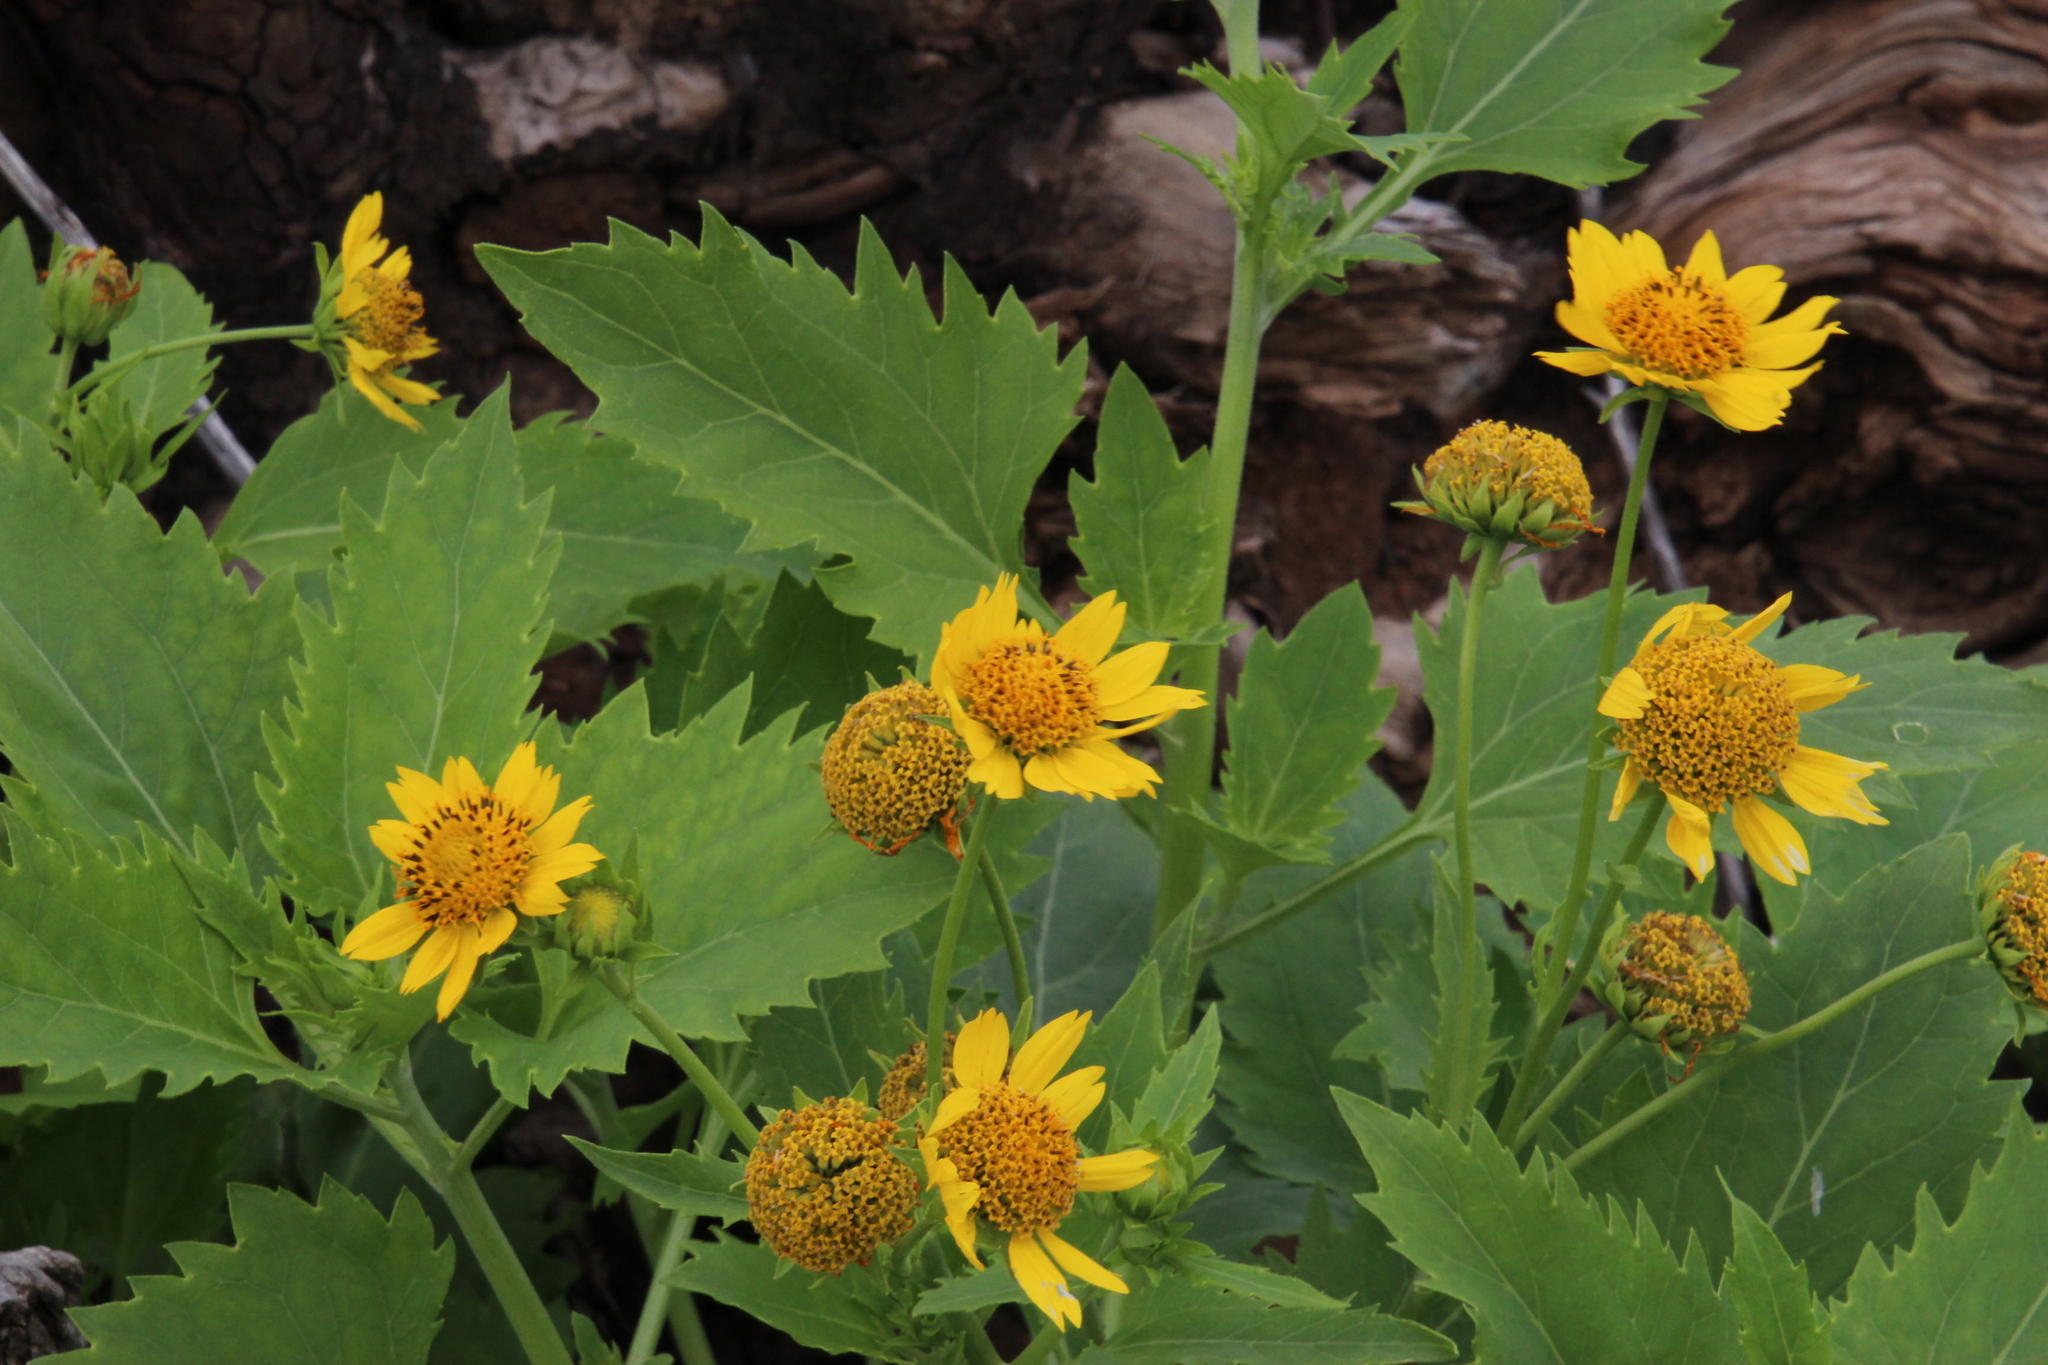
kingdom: Plantae
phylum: Tracheophyta
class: Magnoliopsida
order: Asterales
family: Asteraceae
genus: Verbesina
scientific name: Verbesina encelioides
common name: Golden crownbeard
